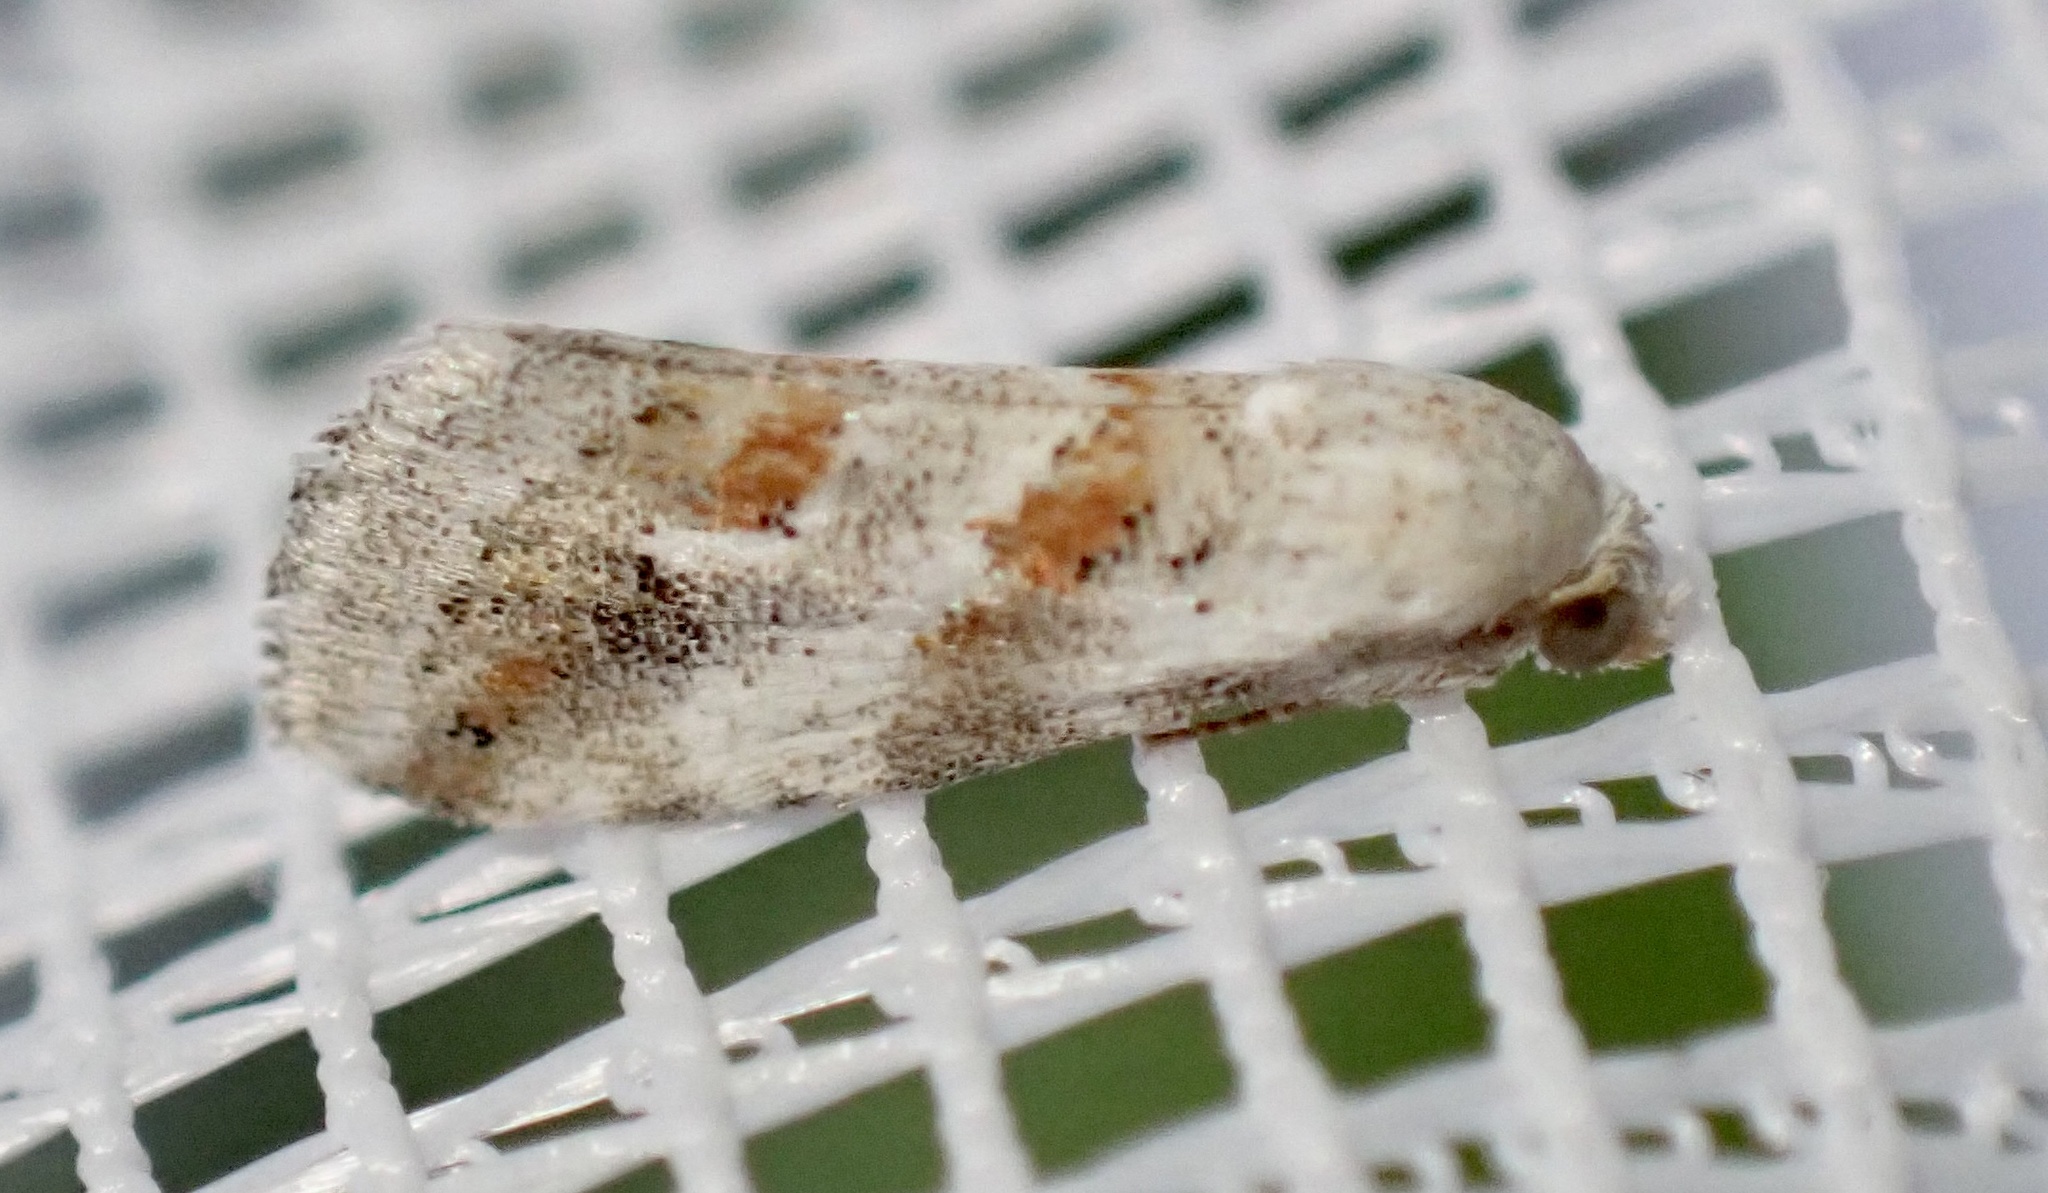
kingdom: Animalia
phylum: Arthropoda
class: Insecta
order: Lepidoptera
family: Noctuidae
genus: Eublemma
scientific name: Eublemma ornatula
